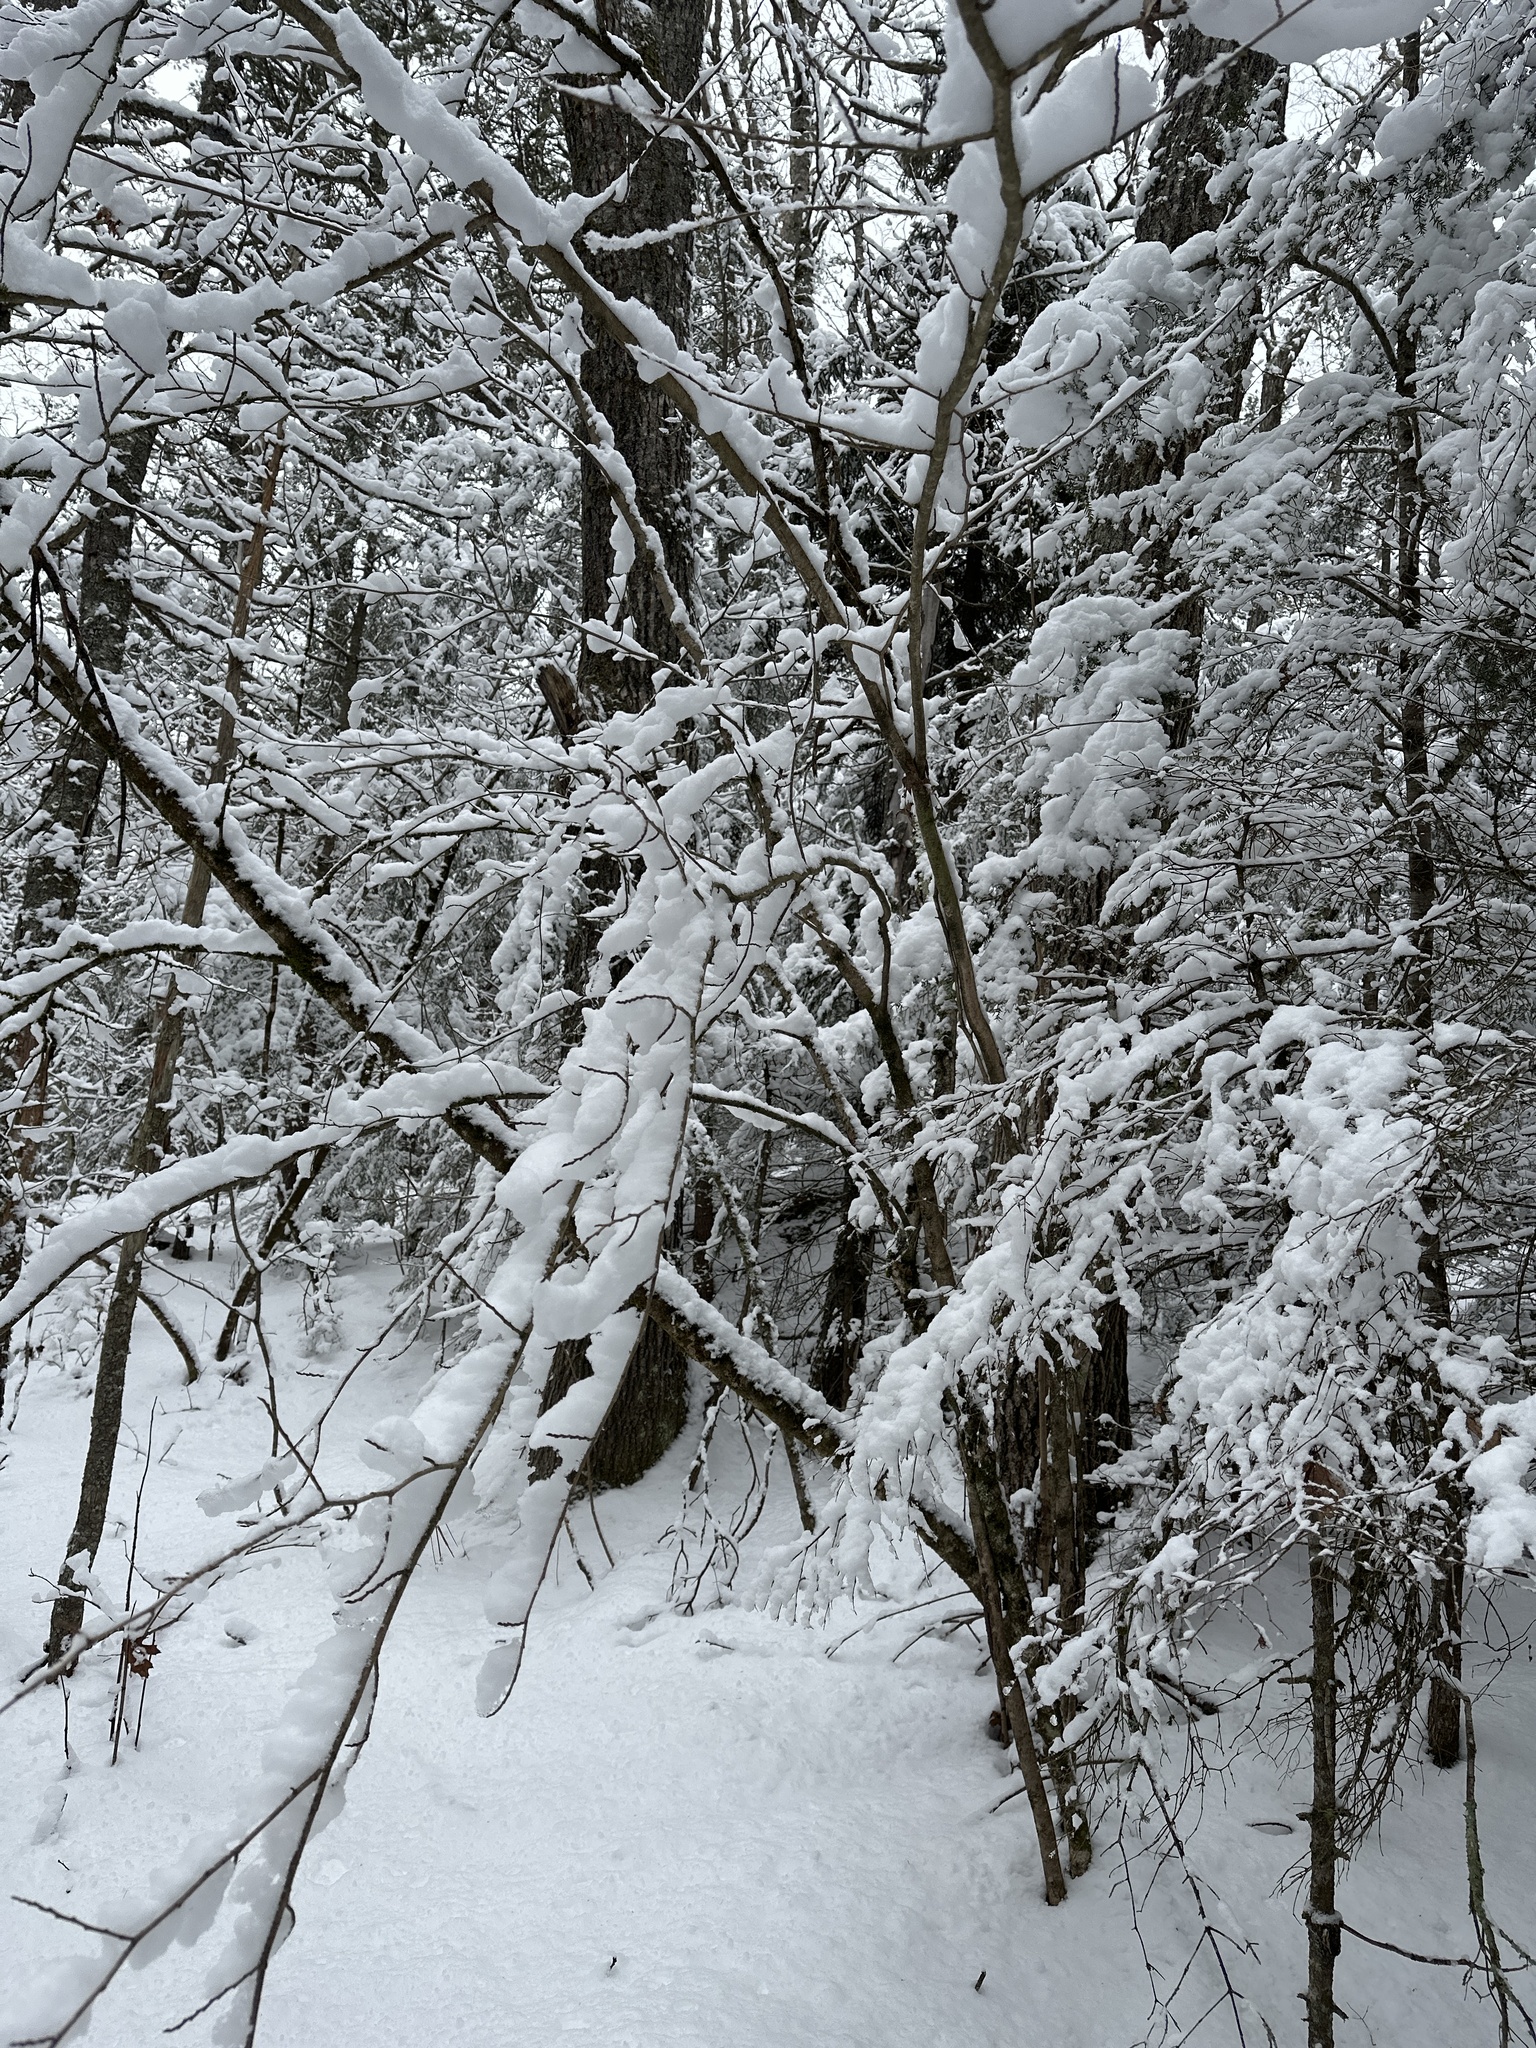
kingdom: Plantae
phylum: Tracheophyta
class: Magnoliopsida
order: Saxifragales
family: Hamamelidaceae
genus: Hamamelis
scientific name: Hamamelis virginiana
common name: Witch-hazel
